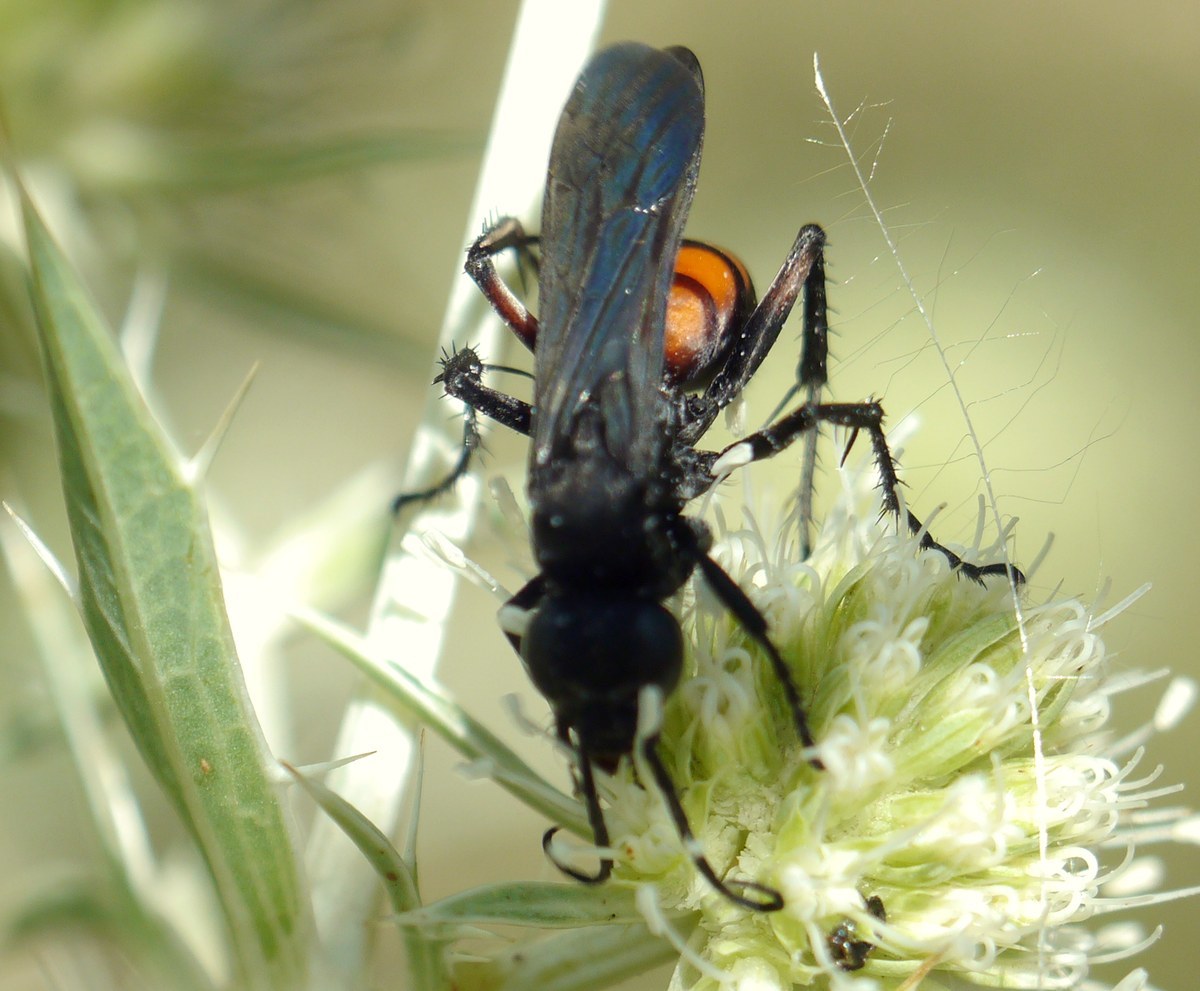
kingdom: Animalia
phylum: Arthropoda
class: Insecta
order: Hymenoptera
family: Pompilidae
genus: Anoplius
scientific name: Anoplius viaticus
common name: Black banded spider wasp
